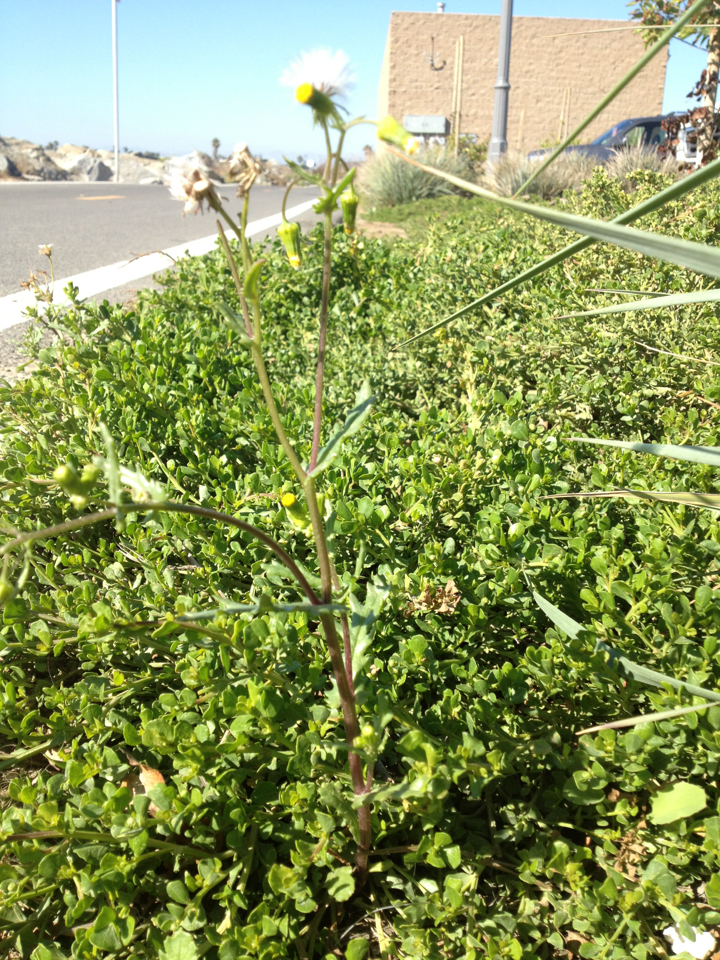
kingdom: Plantae
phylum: Tracheophyta
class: Magnoliopsida
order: Asterales
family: Asteraceae
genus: Senecio
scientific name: Senecio vulgaris
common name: Old-man-in-the-spring
